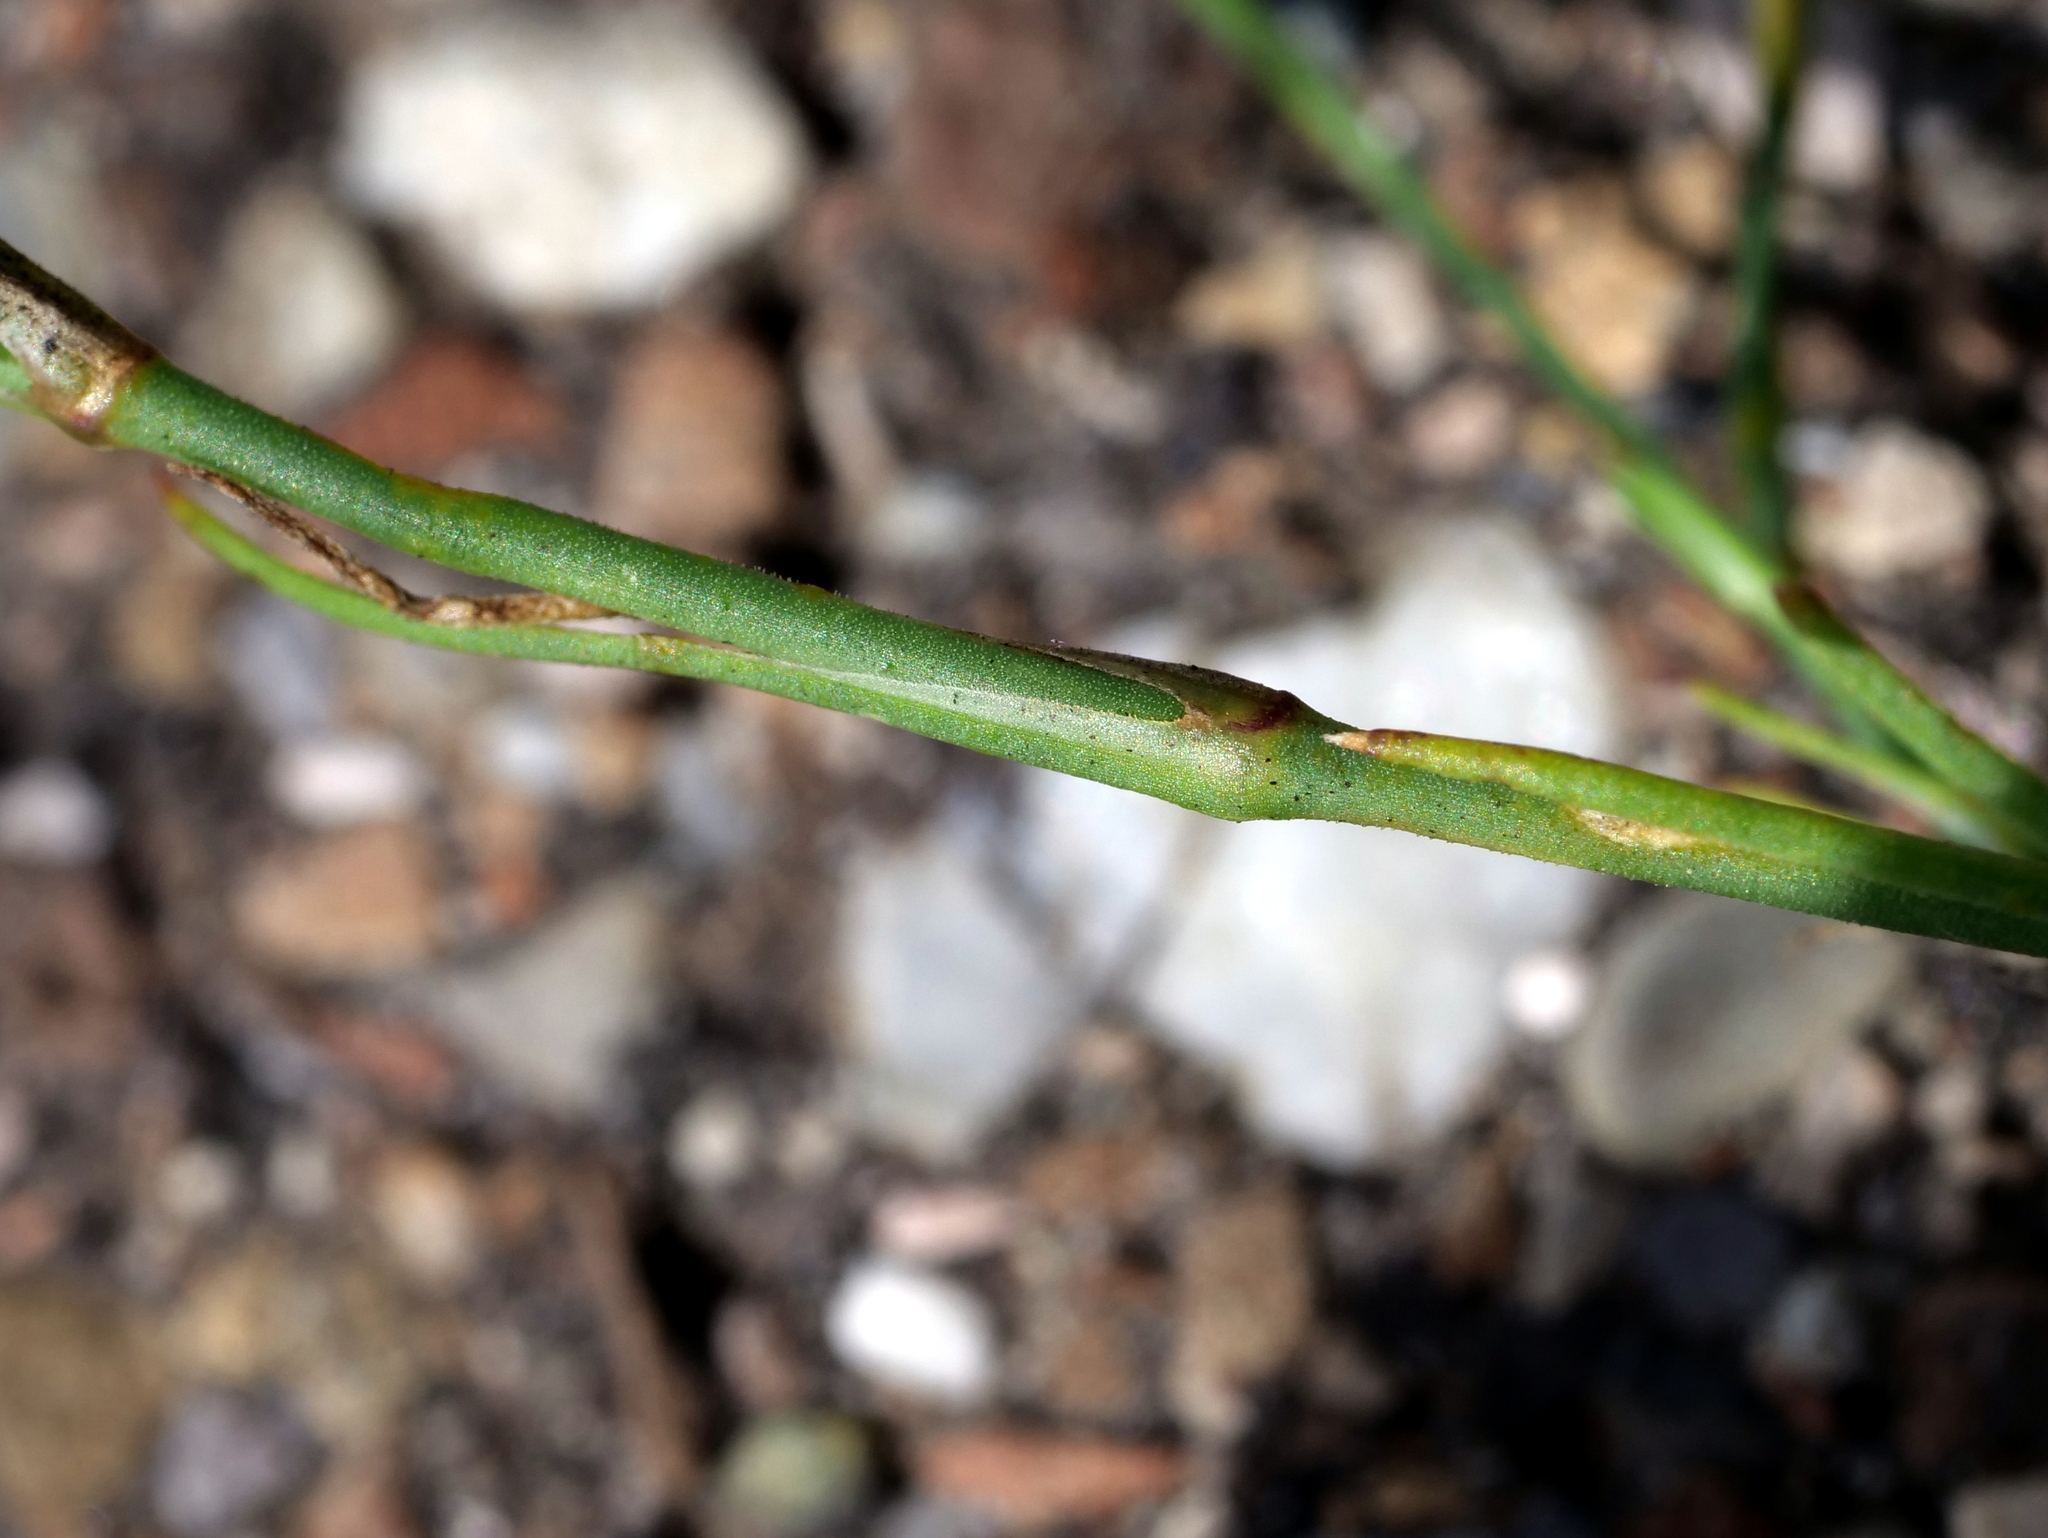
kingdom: Plantae
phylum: Tracheophyta
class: Magnoliopsida
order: Caryophyllales
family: Caryophyllaceae
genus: Petrorhagia
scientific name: Petrorhagia saxifraga
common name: Tunicflower
